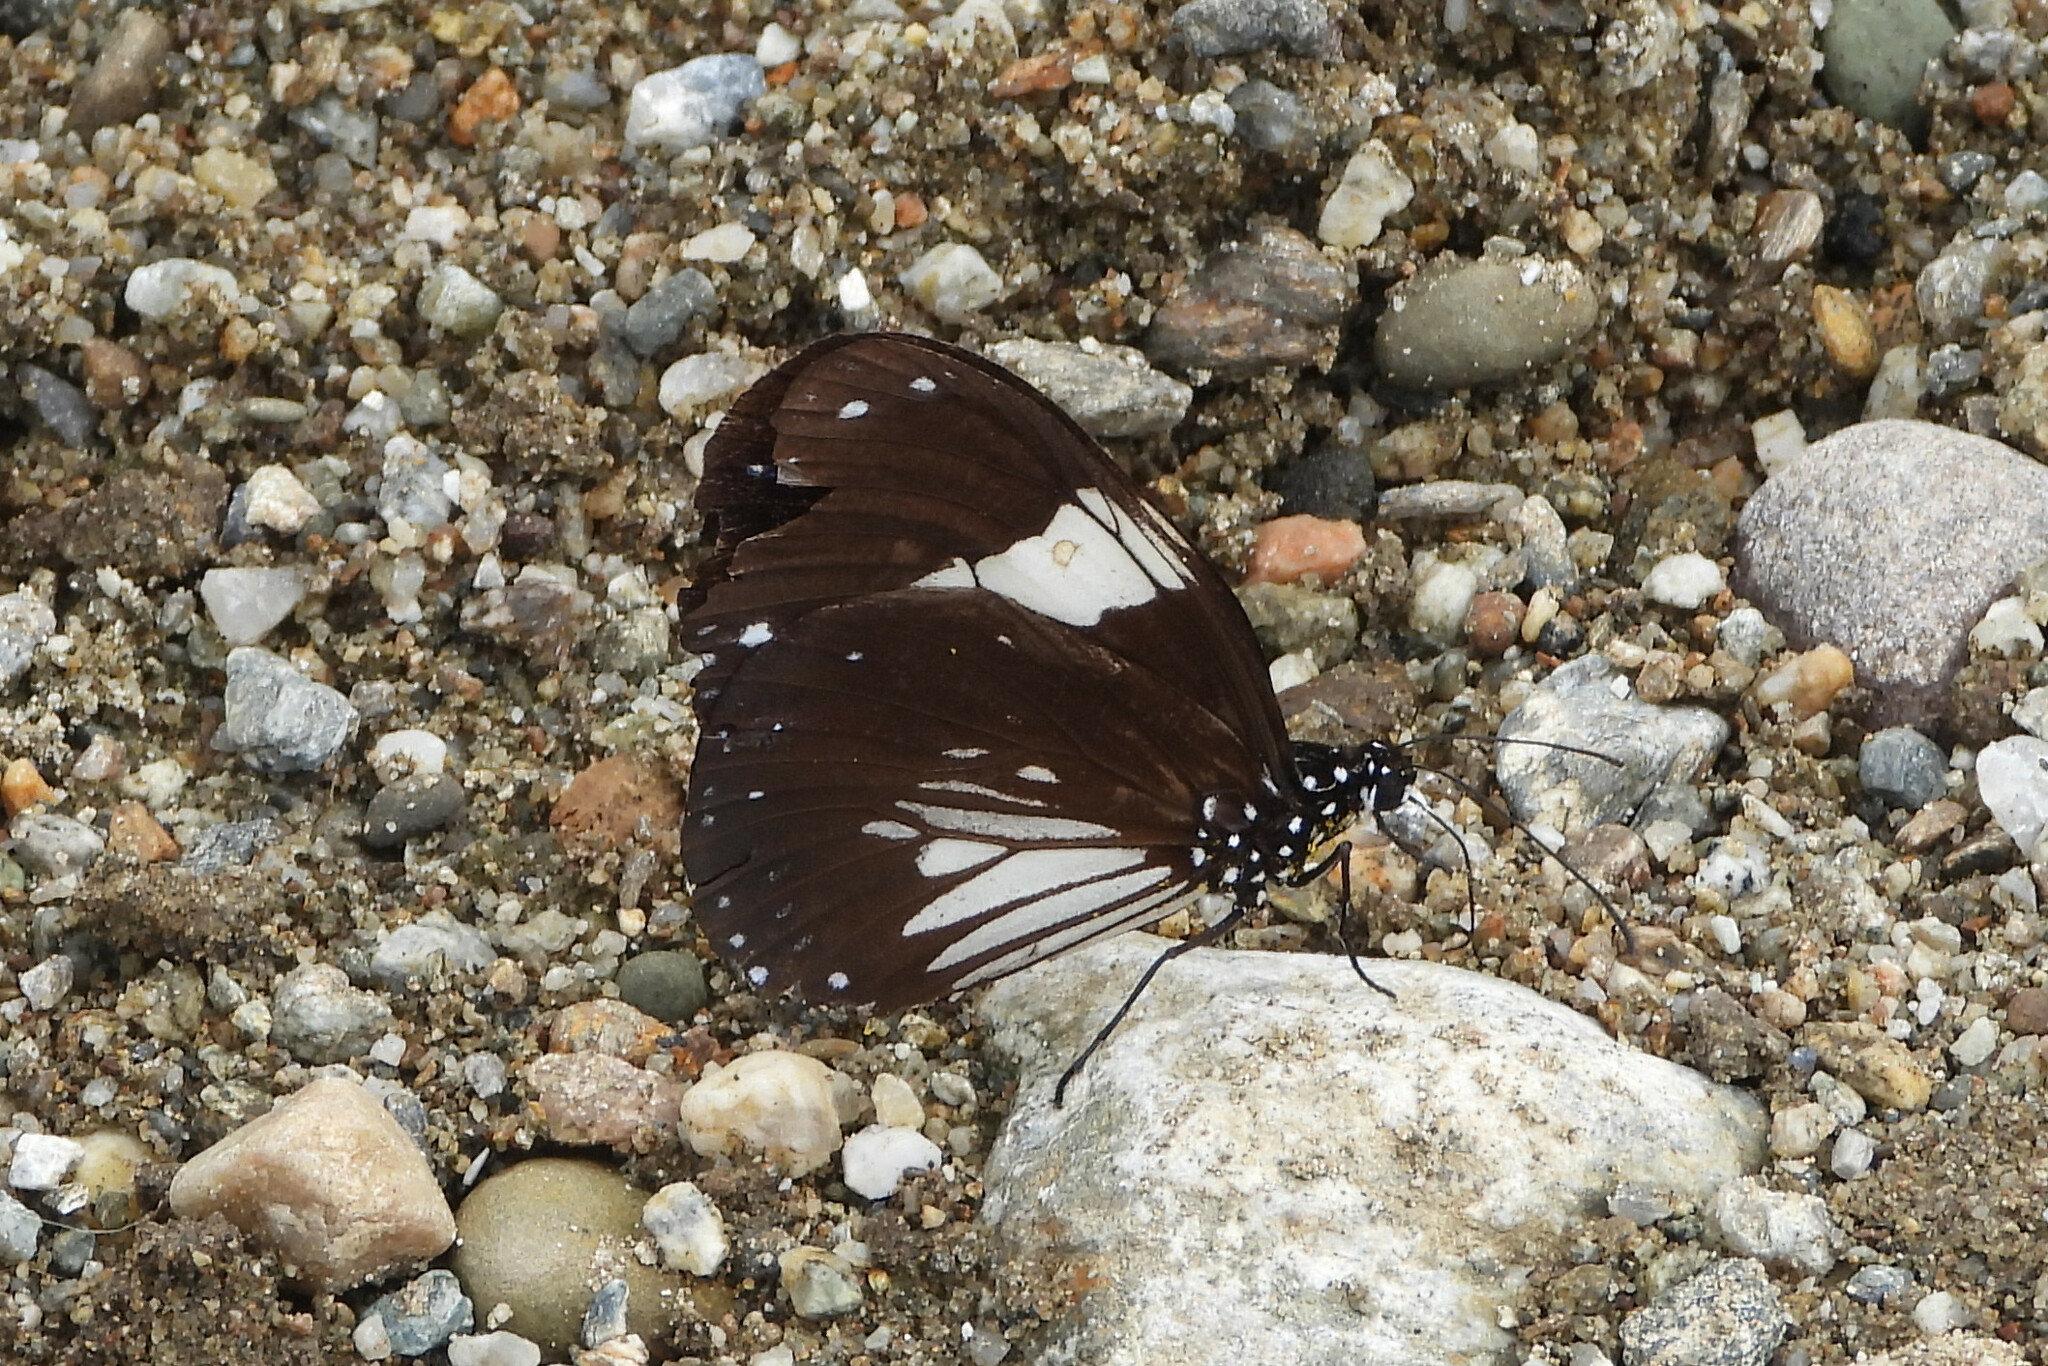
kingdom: Animalia
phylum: Arthropoda
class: Insecta
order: Lepidoptera
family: Nymphalidae
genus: Euploea
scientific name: Euploea radamanthus
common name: Magpie crow butterfly
